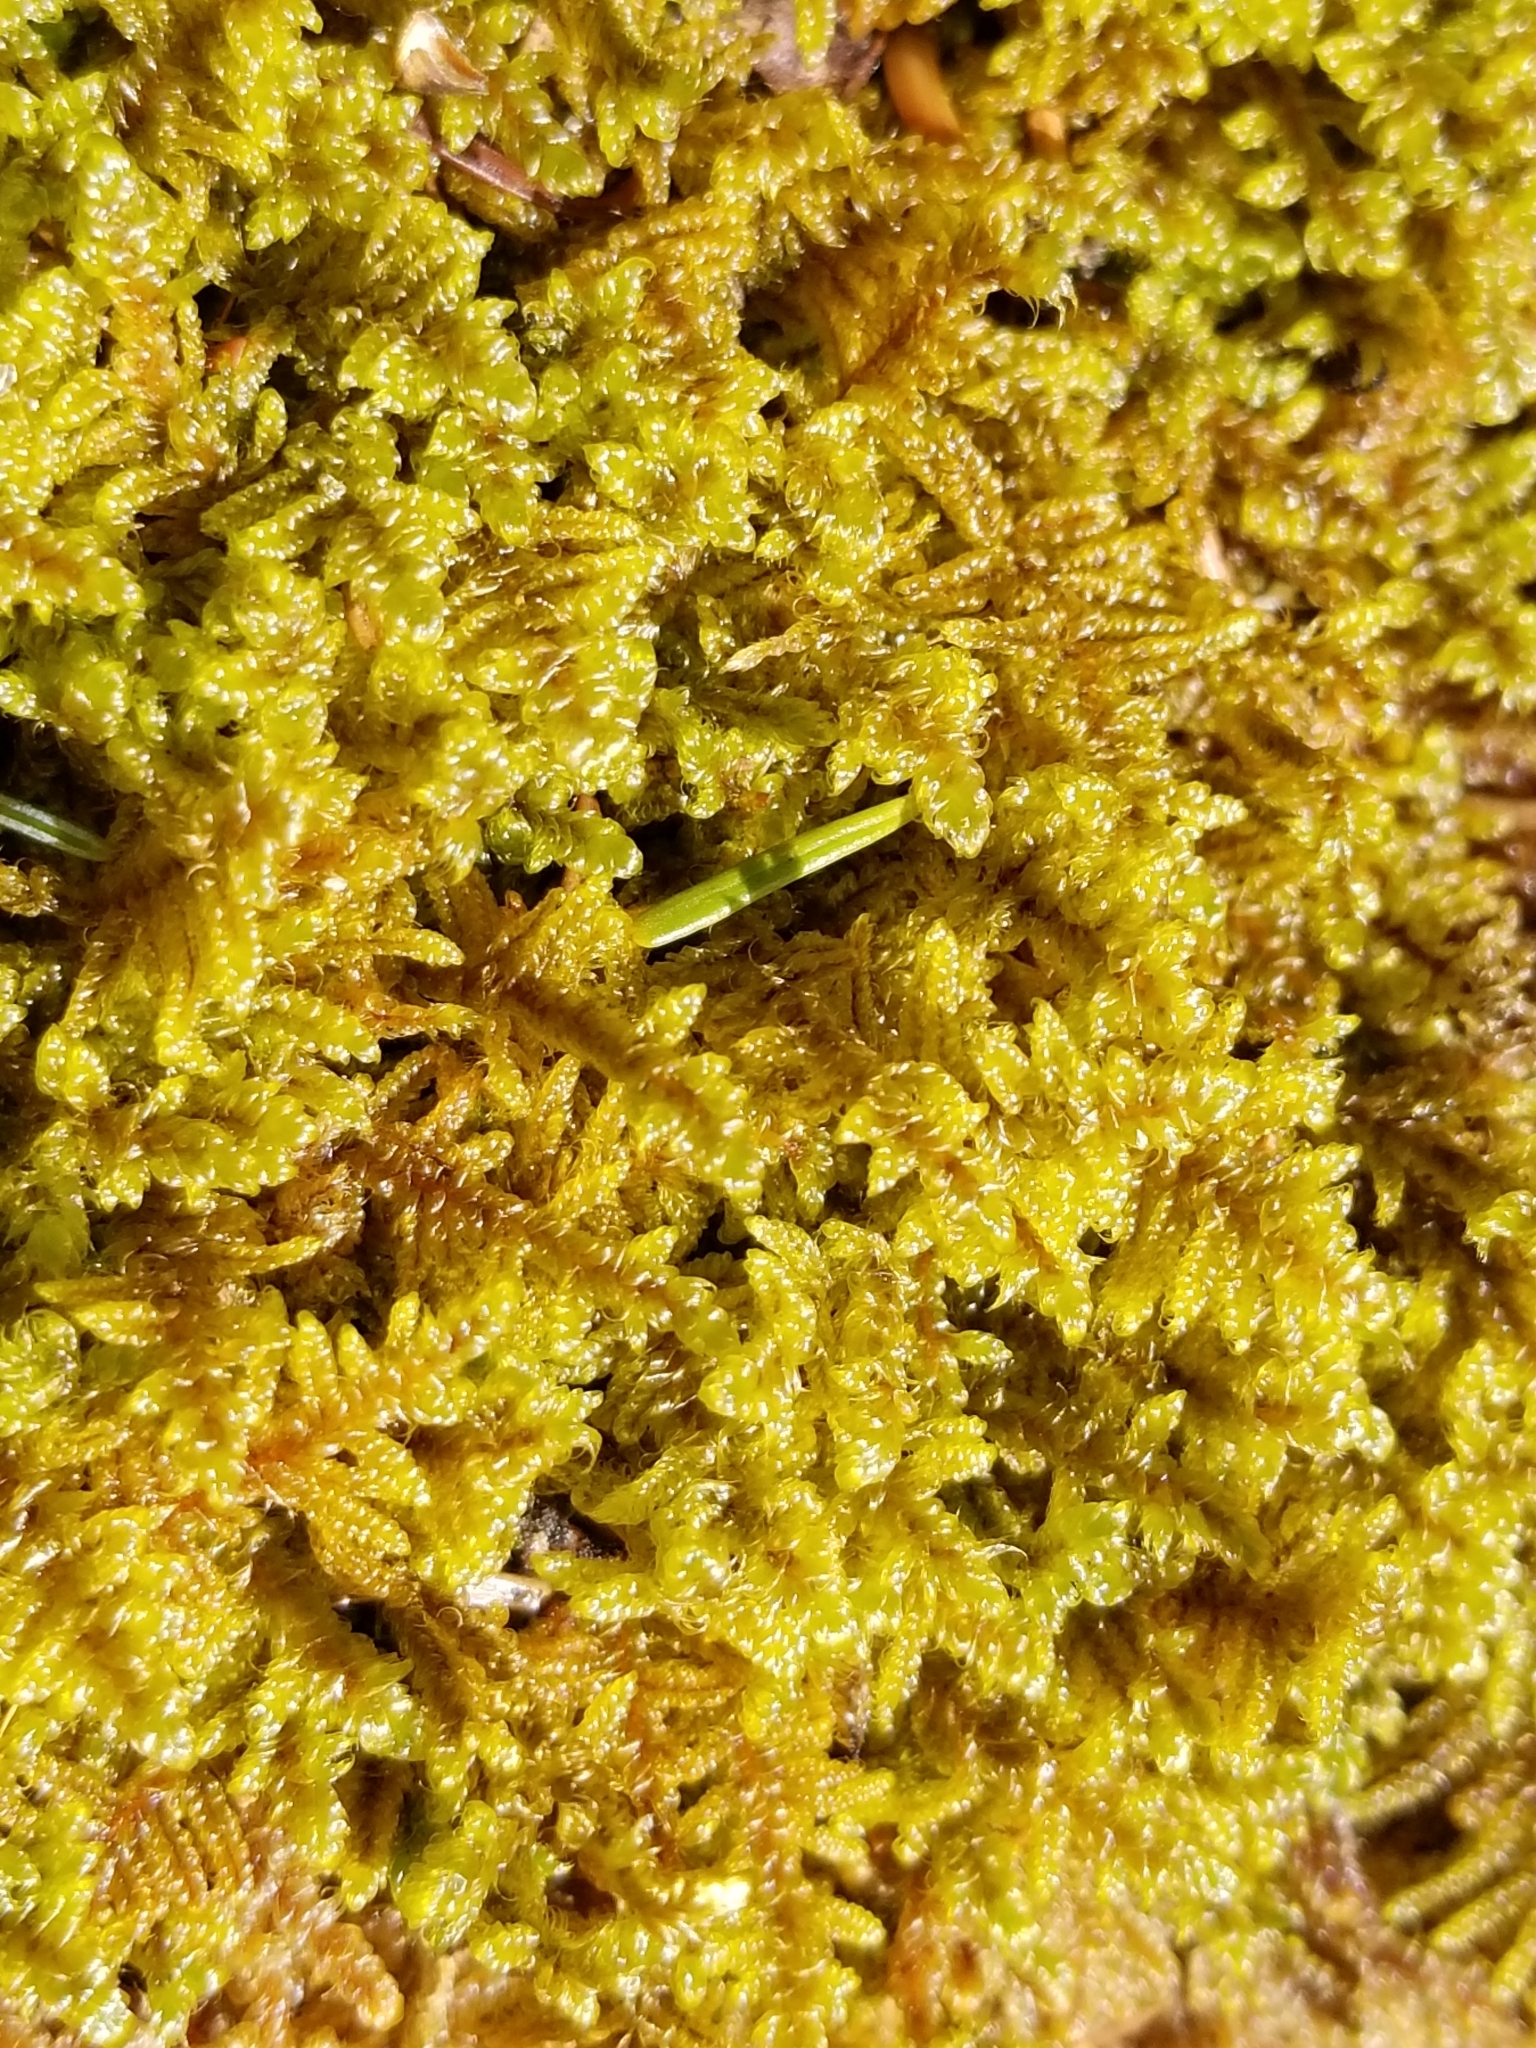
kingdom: Plantae
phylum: Bryophyta
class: Bryopsida
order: Hypnales
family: Callicladiaceae
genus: Callicladium
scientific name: Callicladium imponens
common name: Brocade moss
